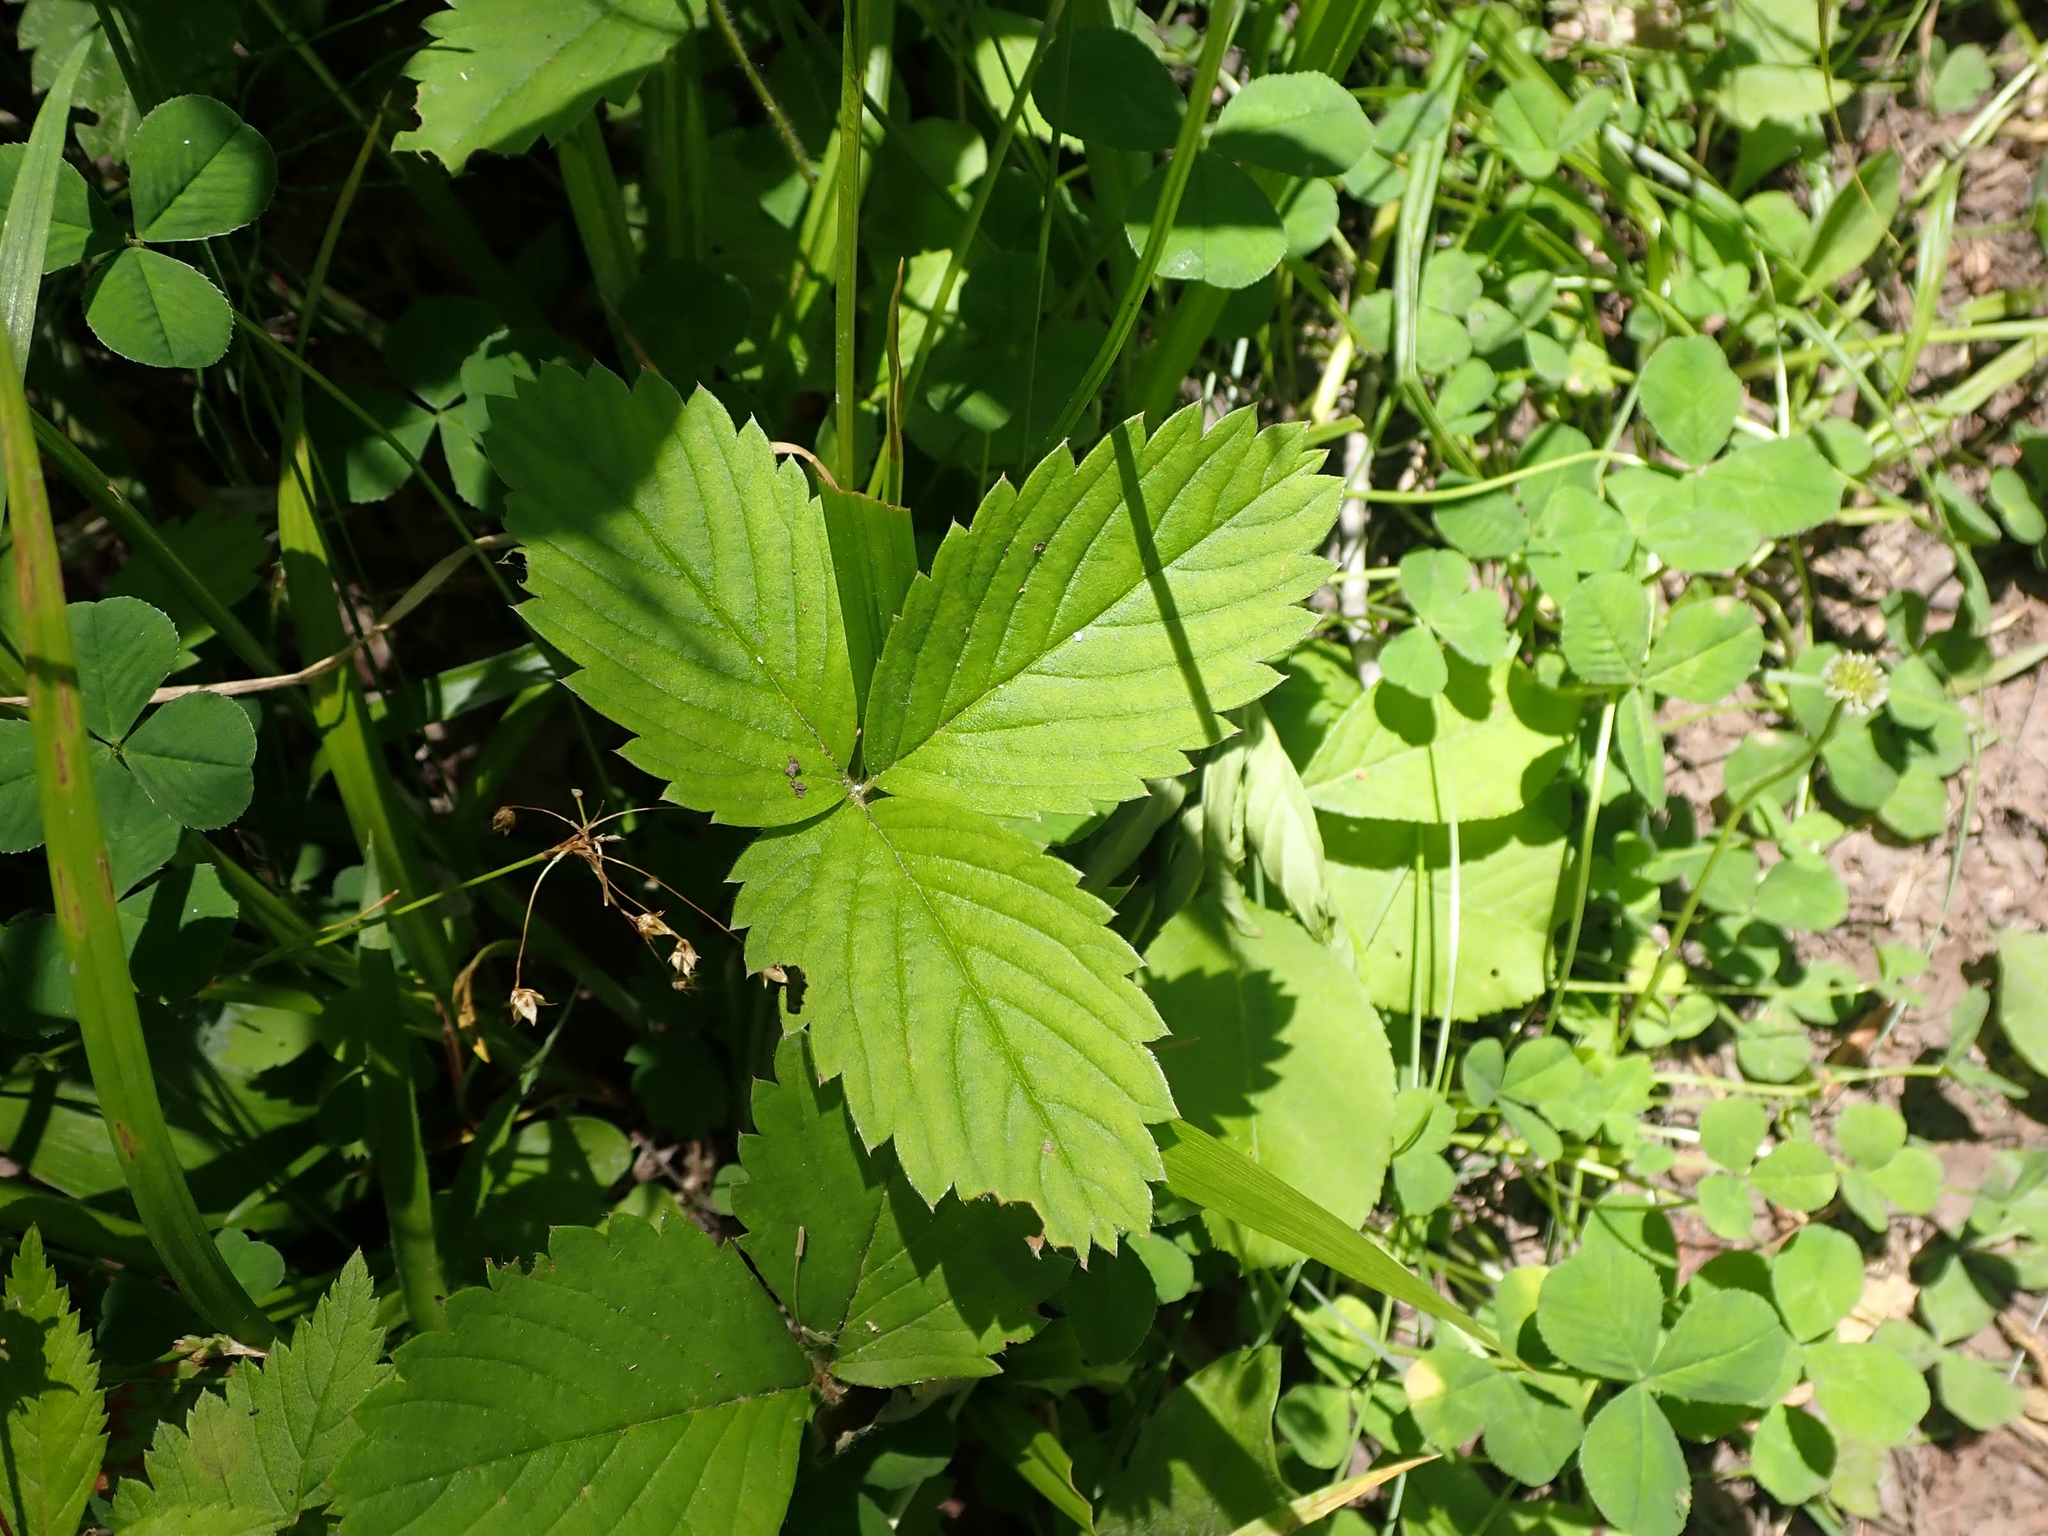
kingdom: Plantae
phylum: Tracheophyta
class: Magnoliopsida
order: Rosales
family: Rosaceae
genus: Fragaria
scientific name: Fragaria virginiana
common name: Thickleaved wild strawberry
